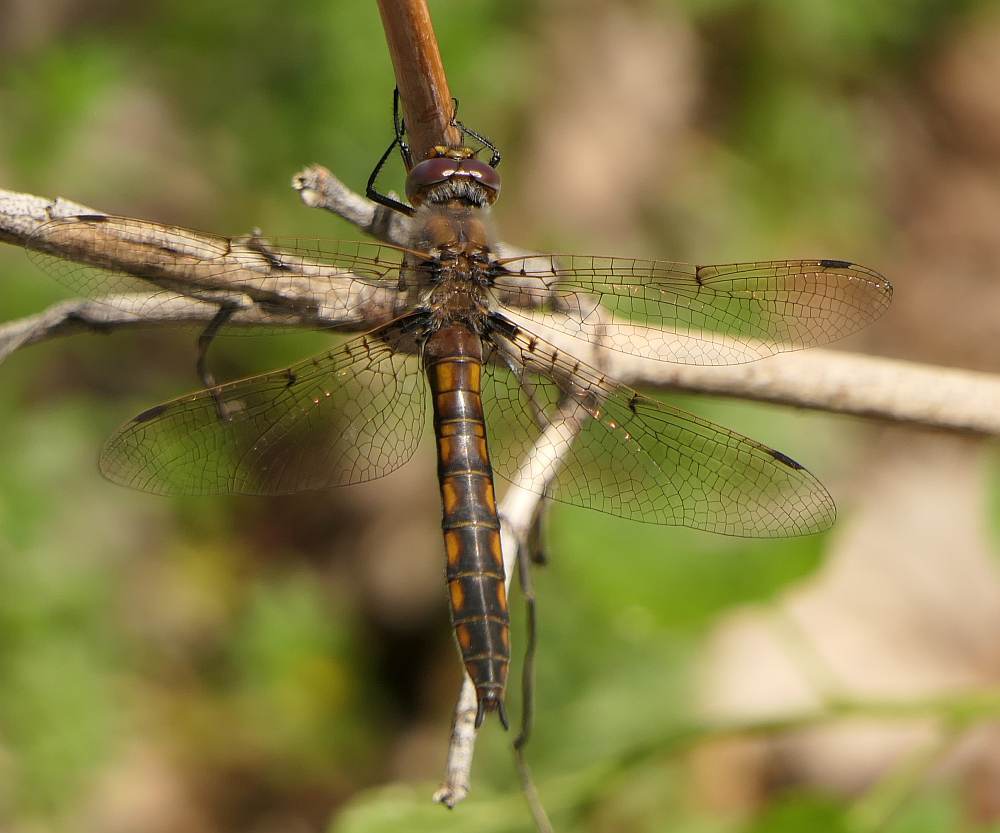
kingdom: Animalia
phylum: Arthropoda
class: Insecta
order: Odonata
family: Corduliidae
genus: Epitheca
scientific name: Epitheca canis
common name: Beaverpond baskettail
